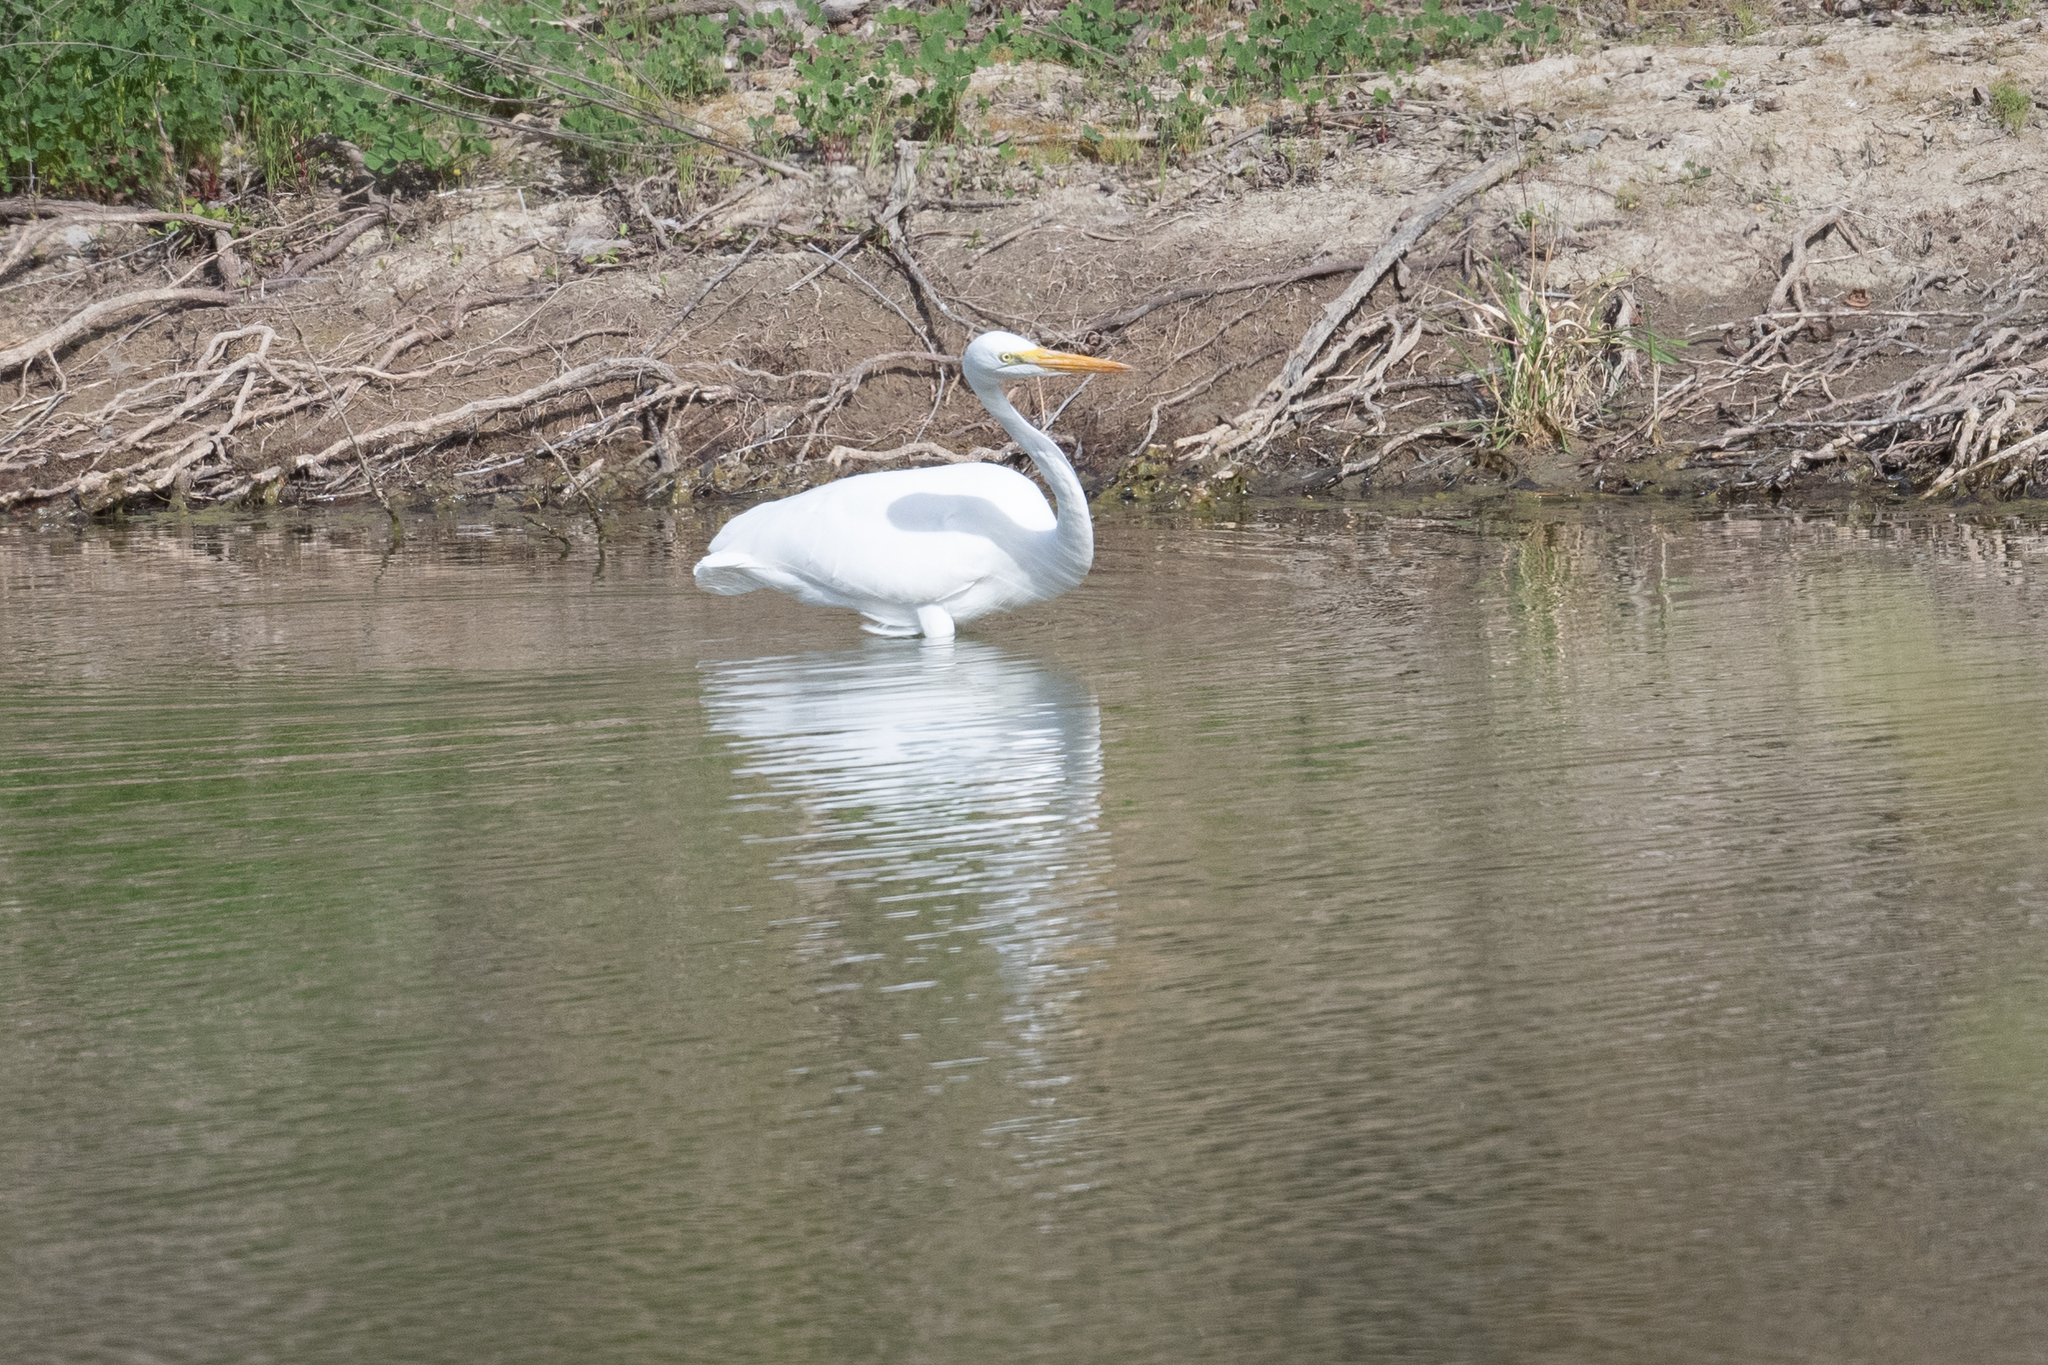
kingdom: Animalia
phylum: Chordata
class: Aves
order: Pelecaniformes
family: Ardeidae
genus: Ardea
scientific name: Ardea alba
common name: Great egret
